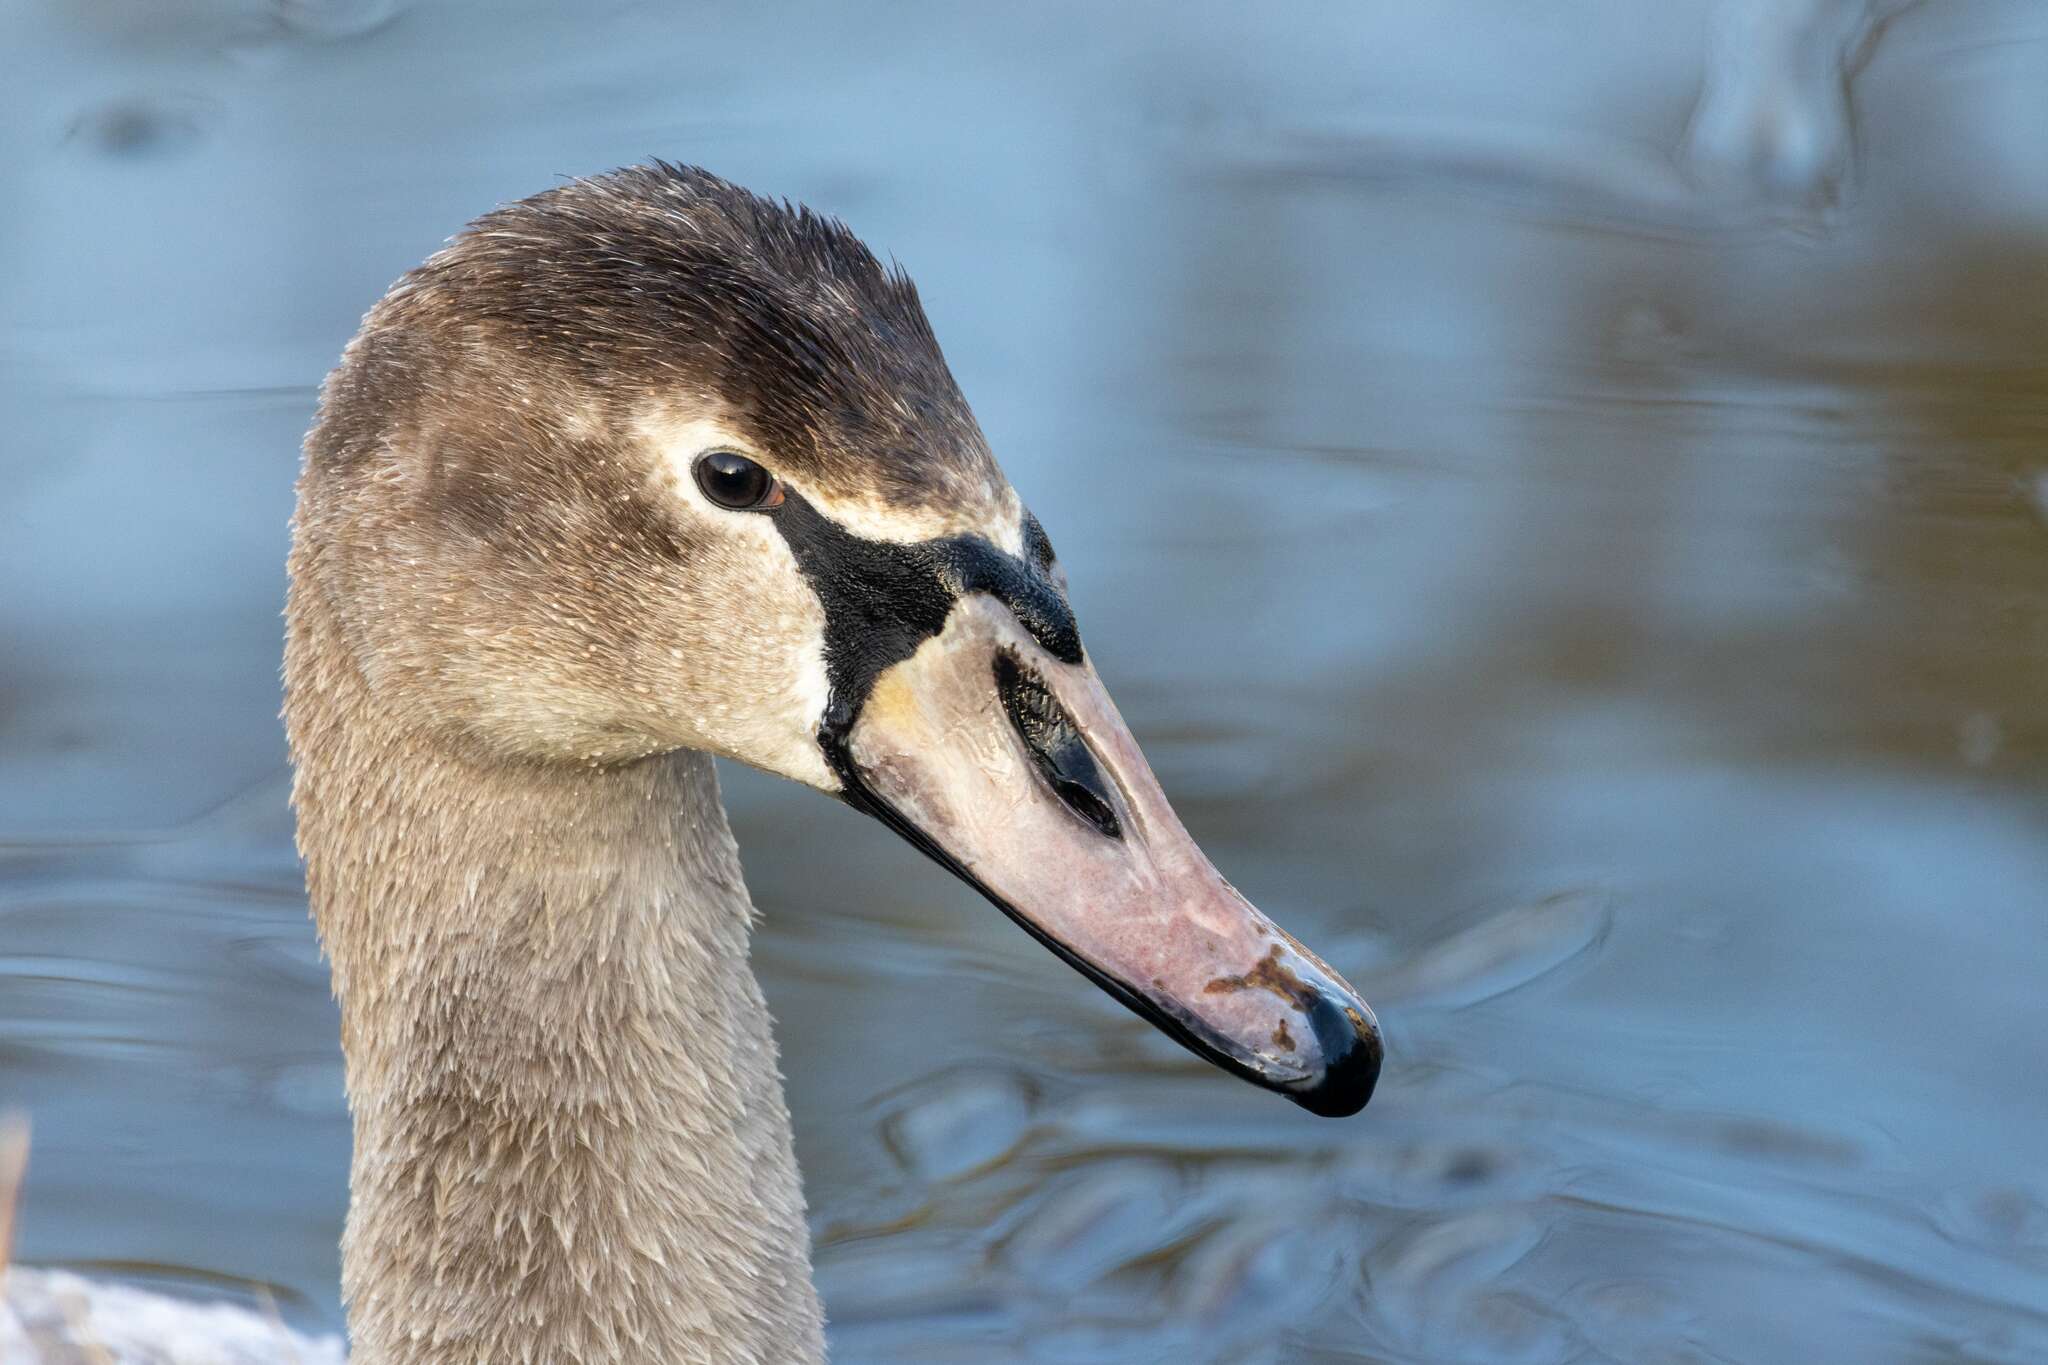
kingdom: Animalia
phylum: Chordata
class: Aves
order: Anseriformes
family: Anatidae
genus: Cygnus
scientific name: Cygnus olor
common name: Mute swan
